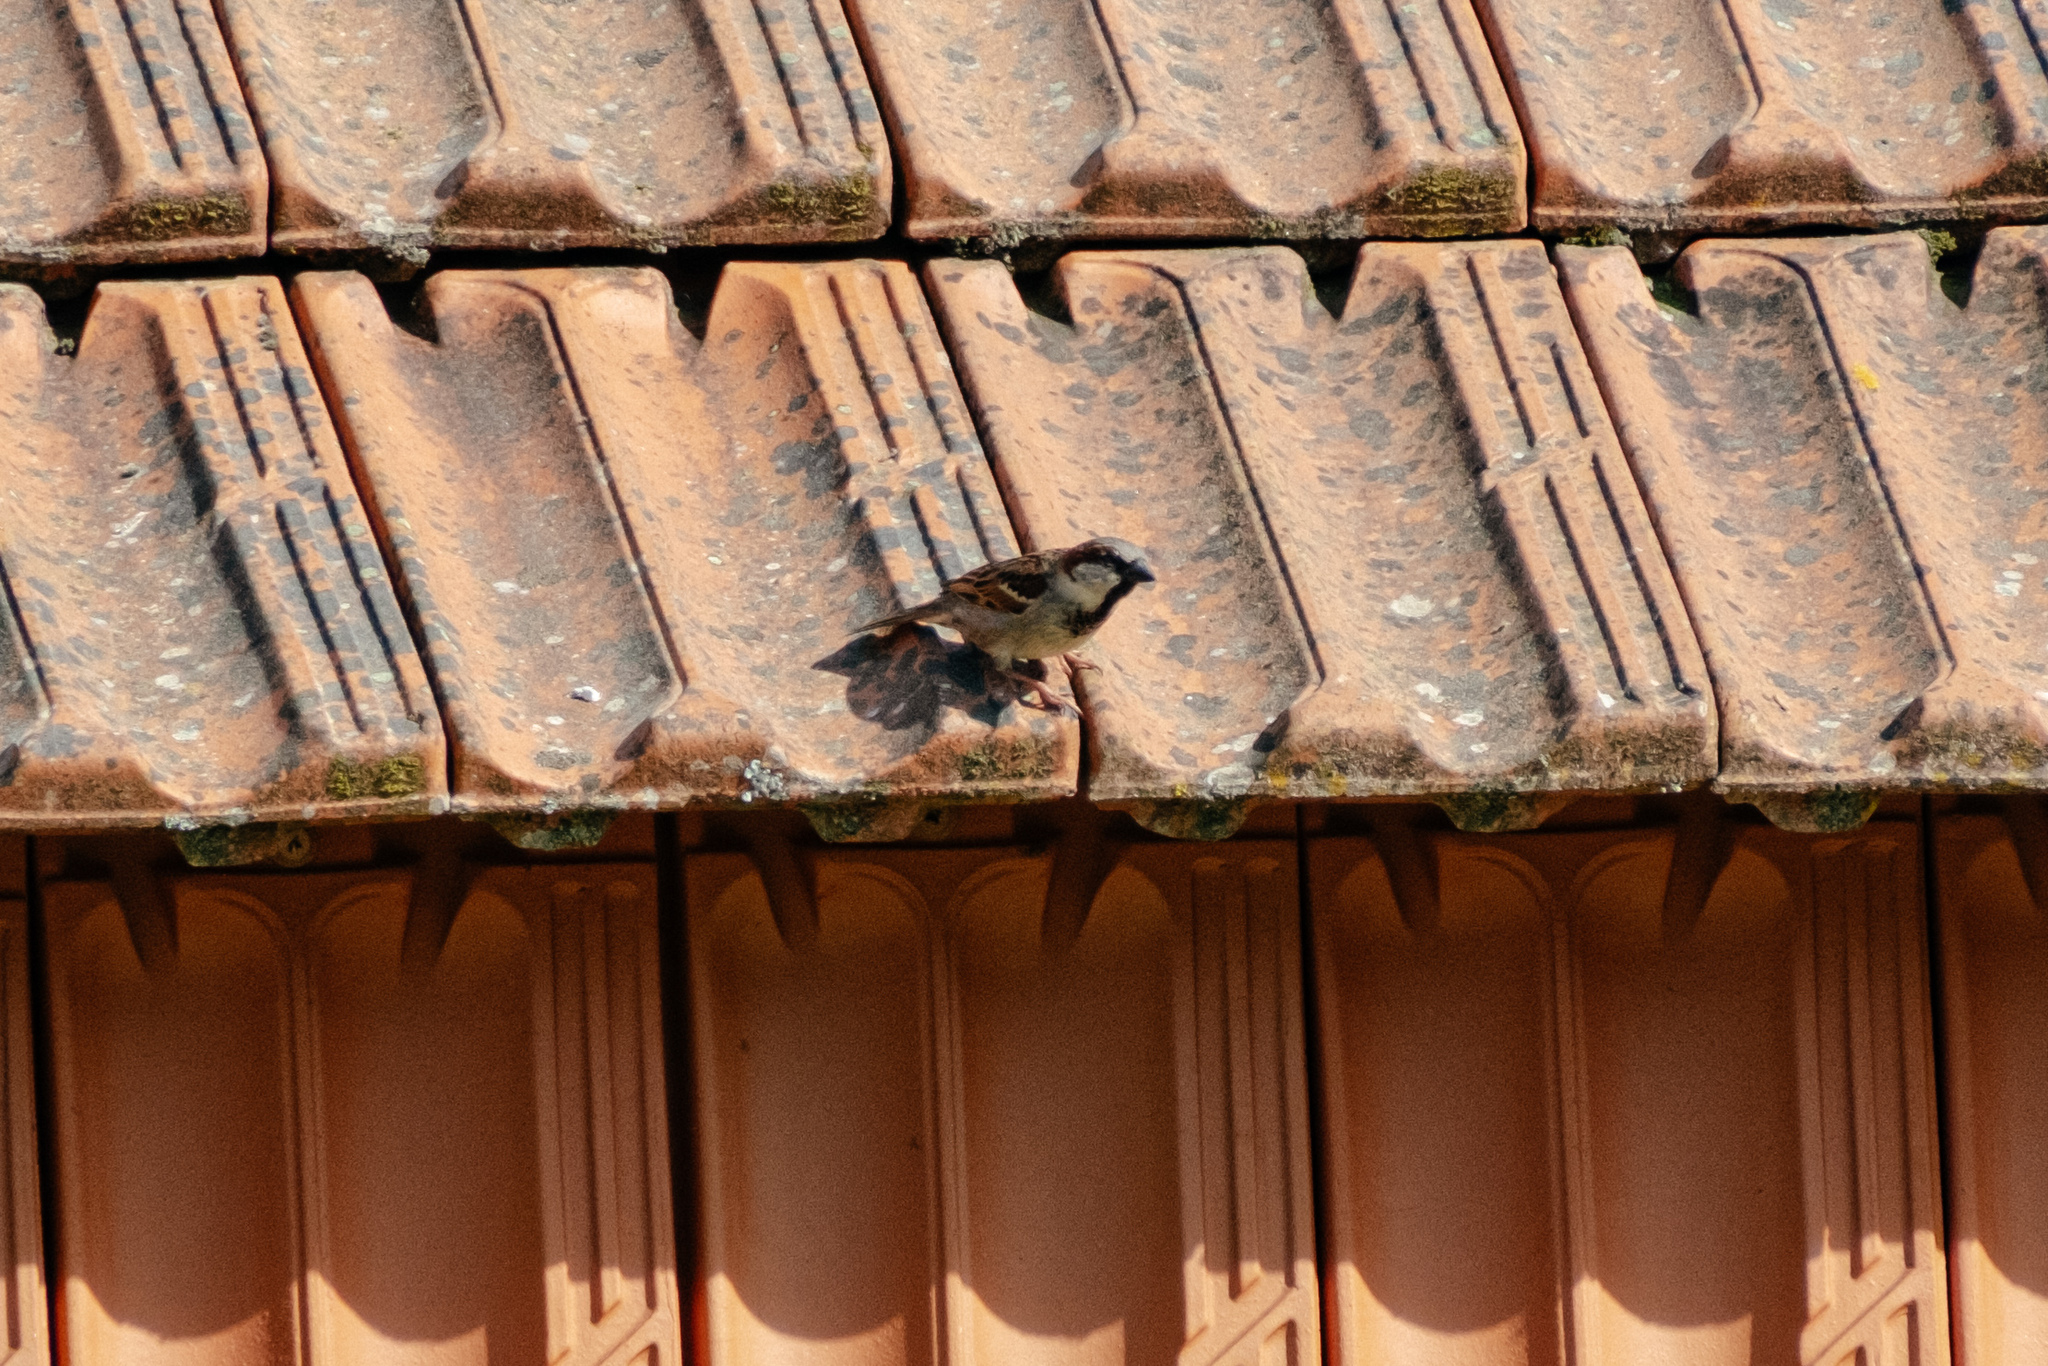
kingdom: Animalia
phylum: Chordata
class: Aves
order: Passeriformes
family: Passeridae
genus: Passer
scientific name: Passer domesticus
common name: House sparrow
